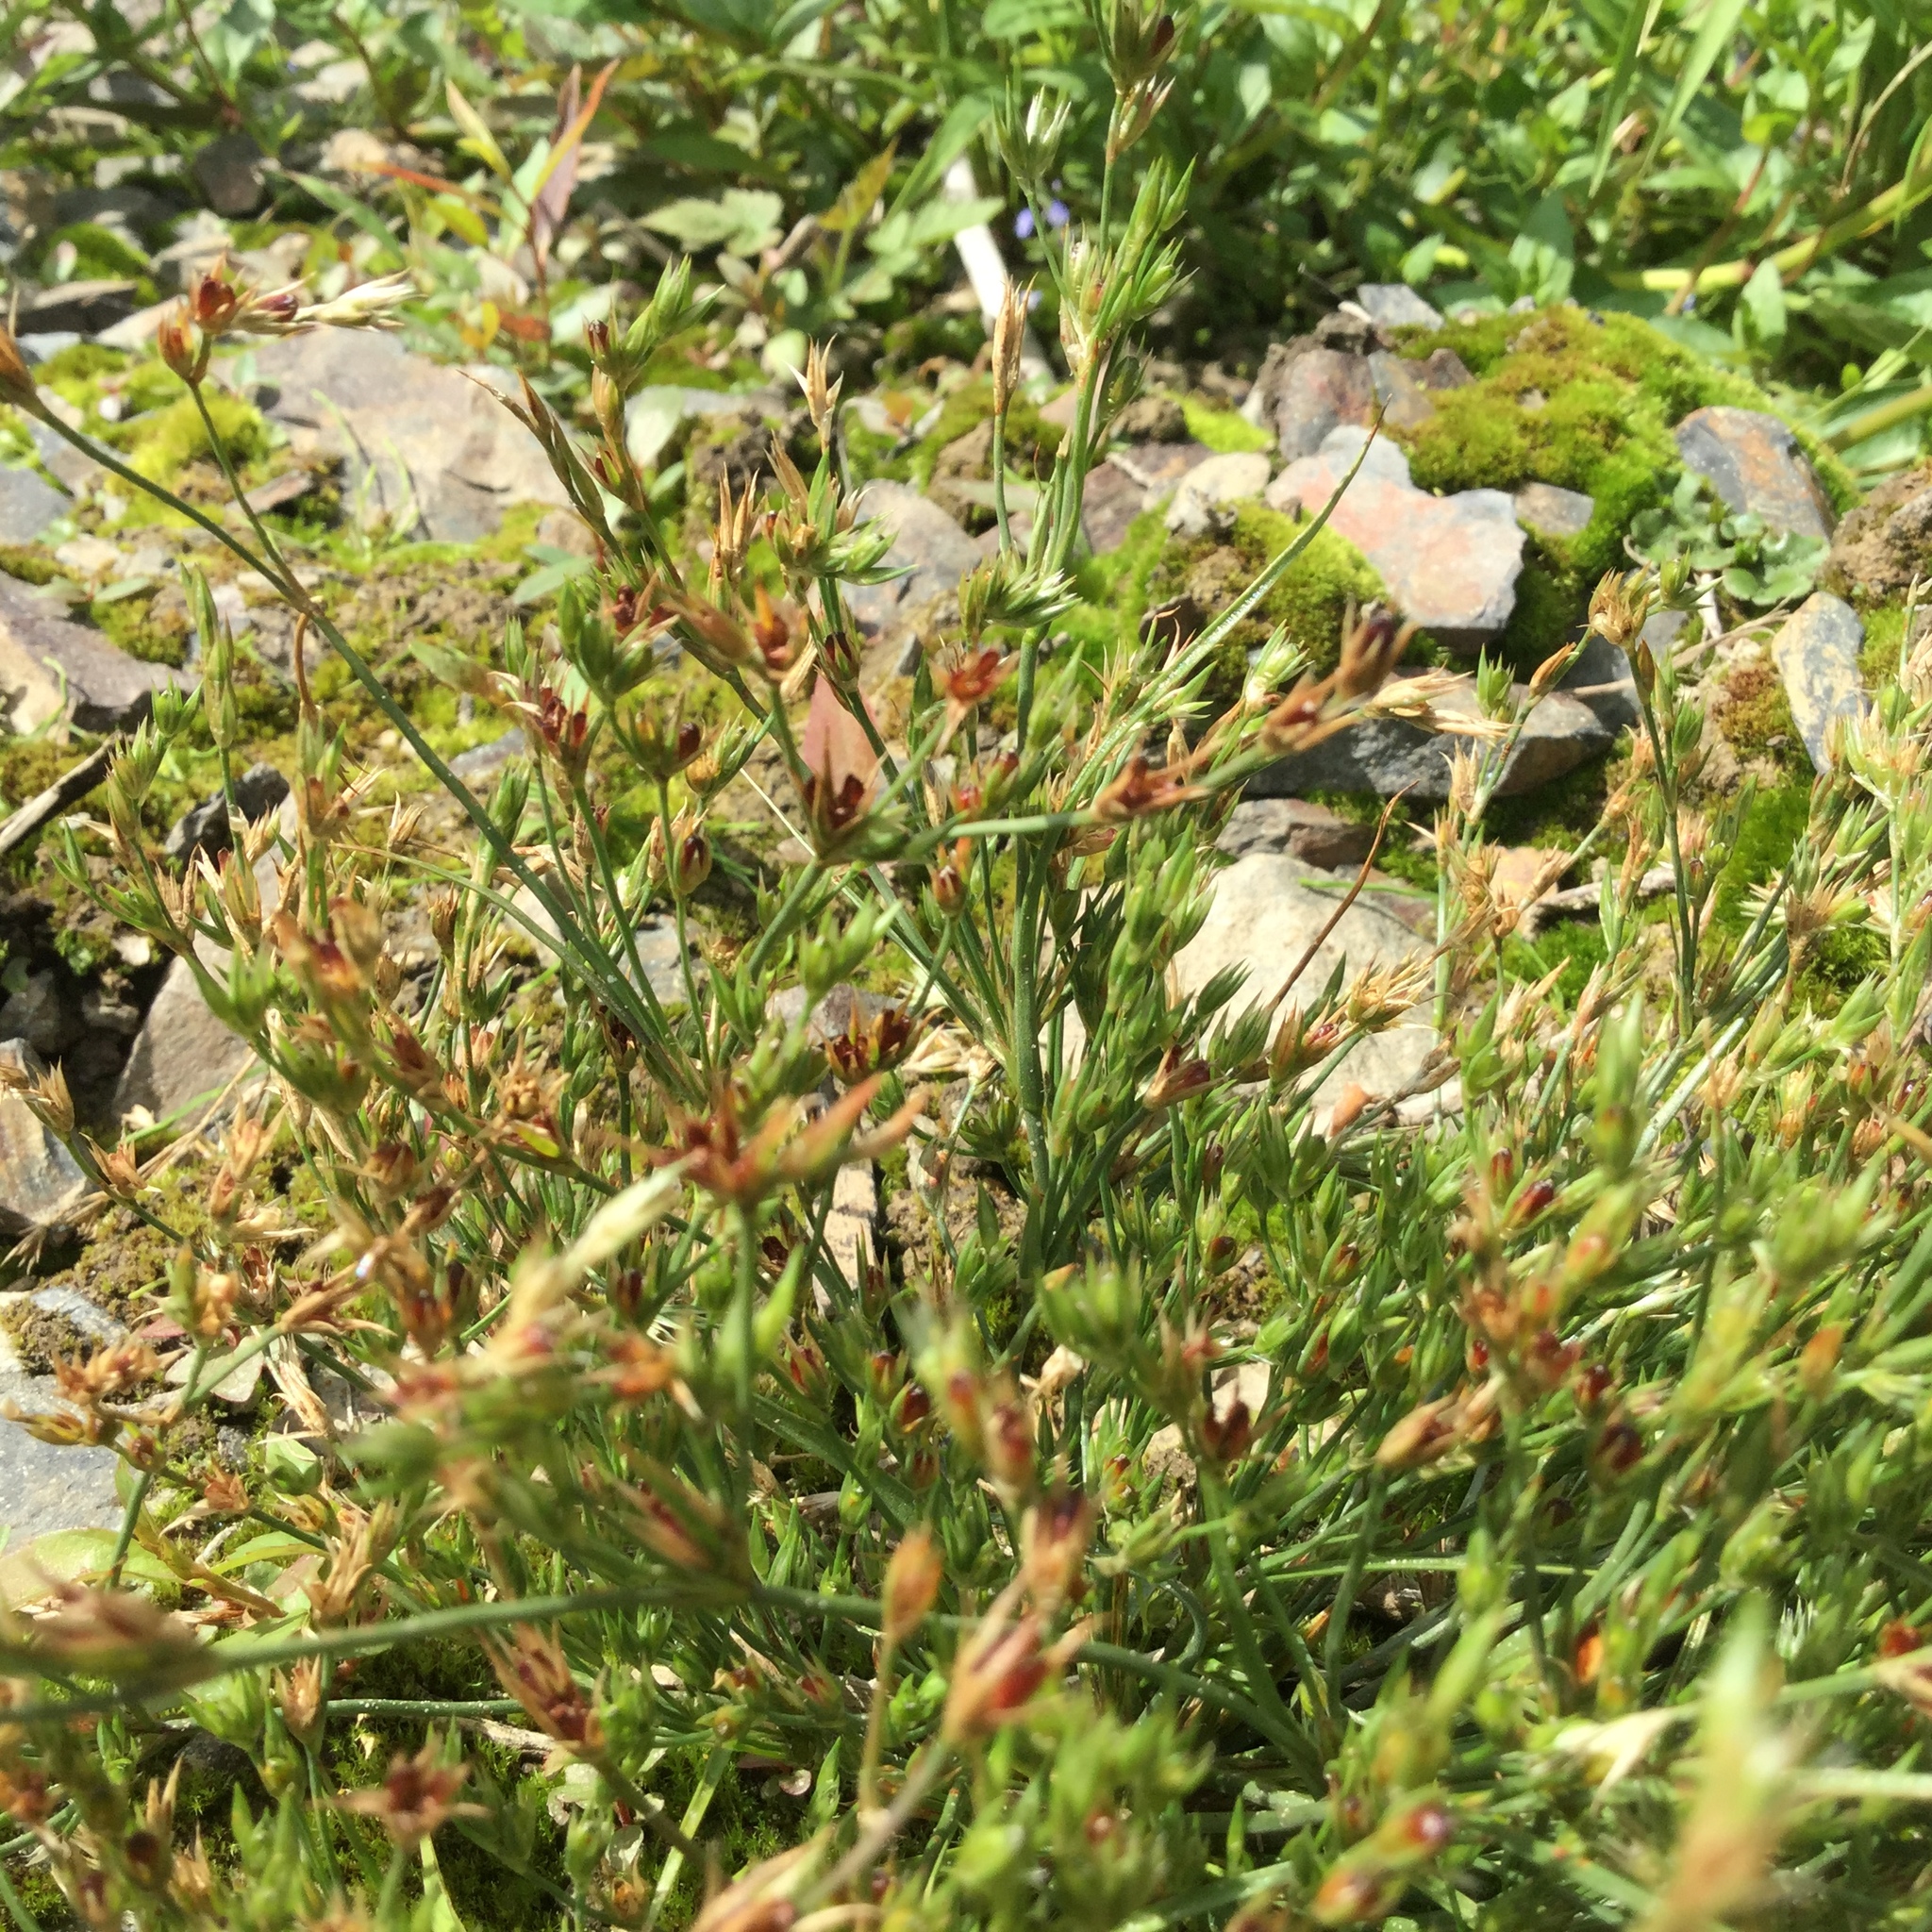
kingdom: Plantae
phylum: Tracheophyta
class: Liliopsida
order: Poales
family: Juncaceae
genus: Juncus
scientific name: Juncus bufonius
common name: Toad rush
